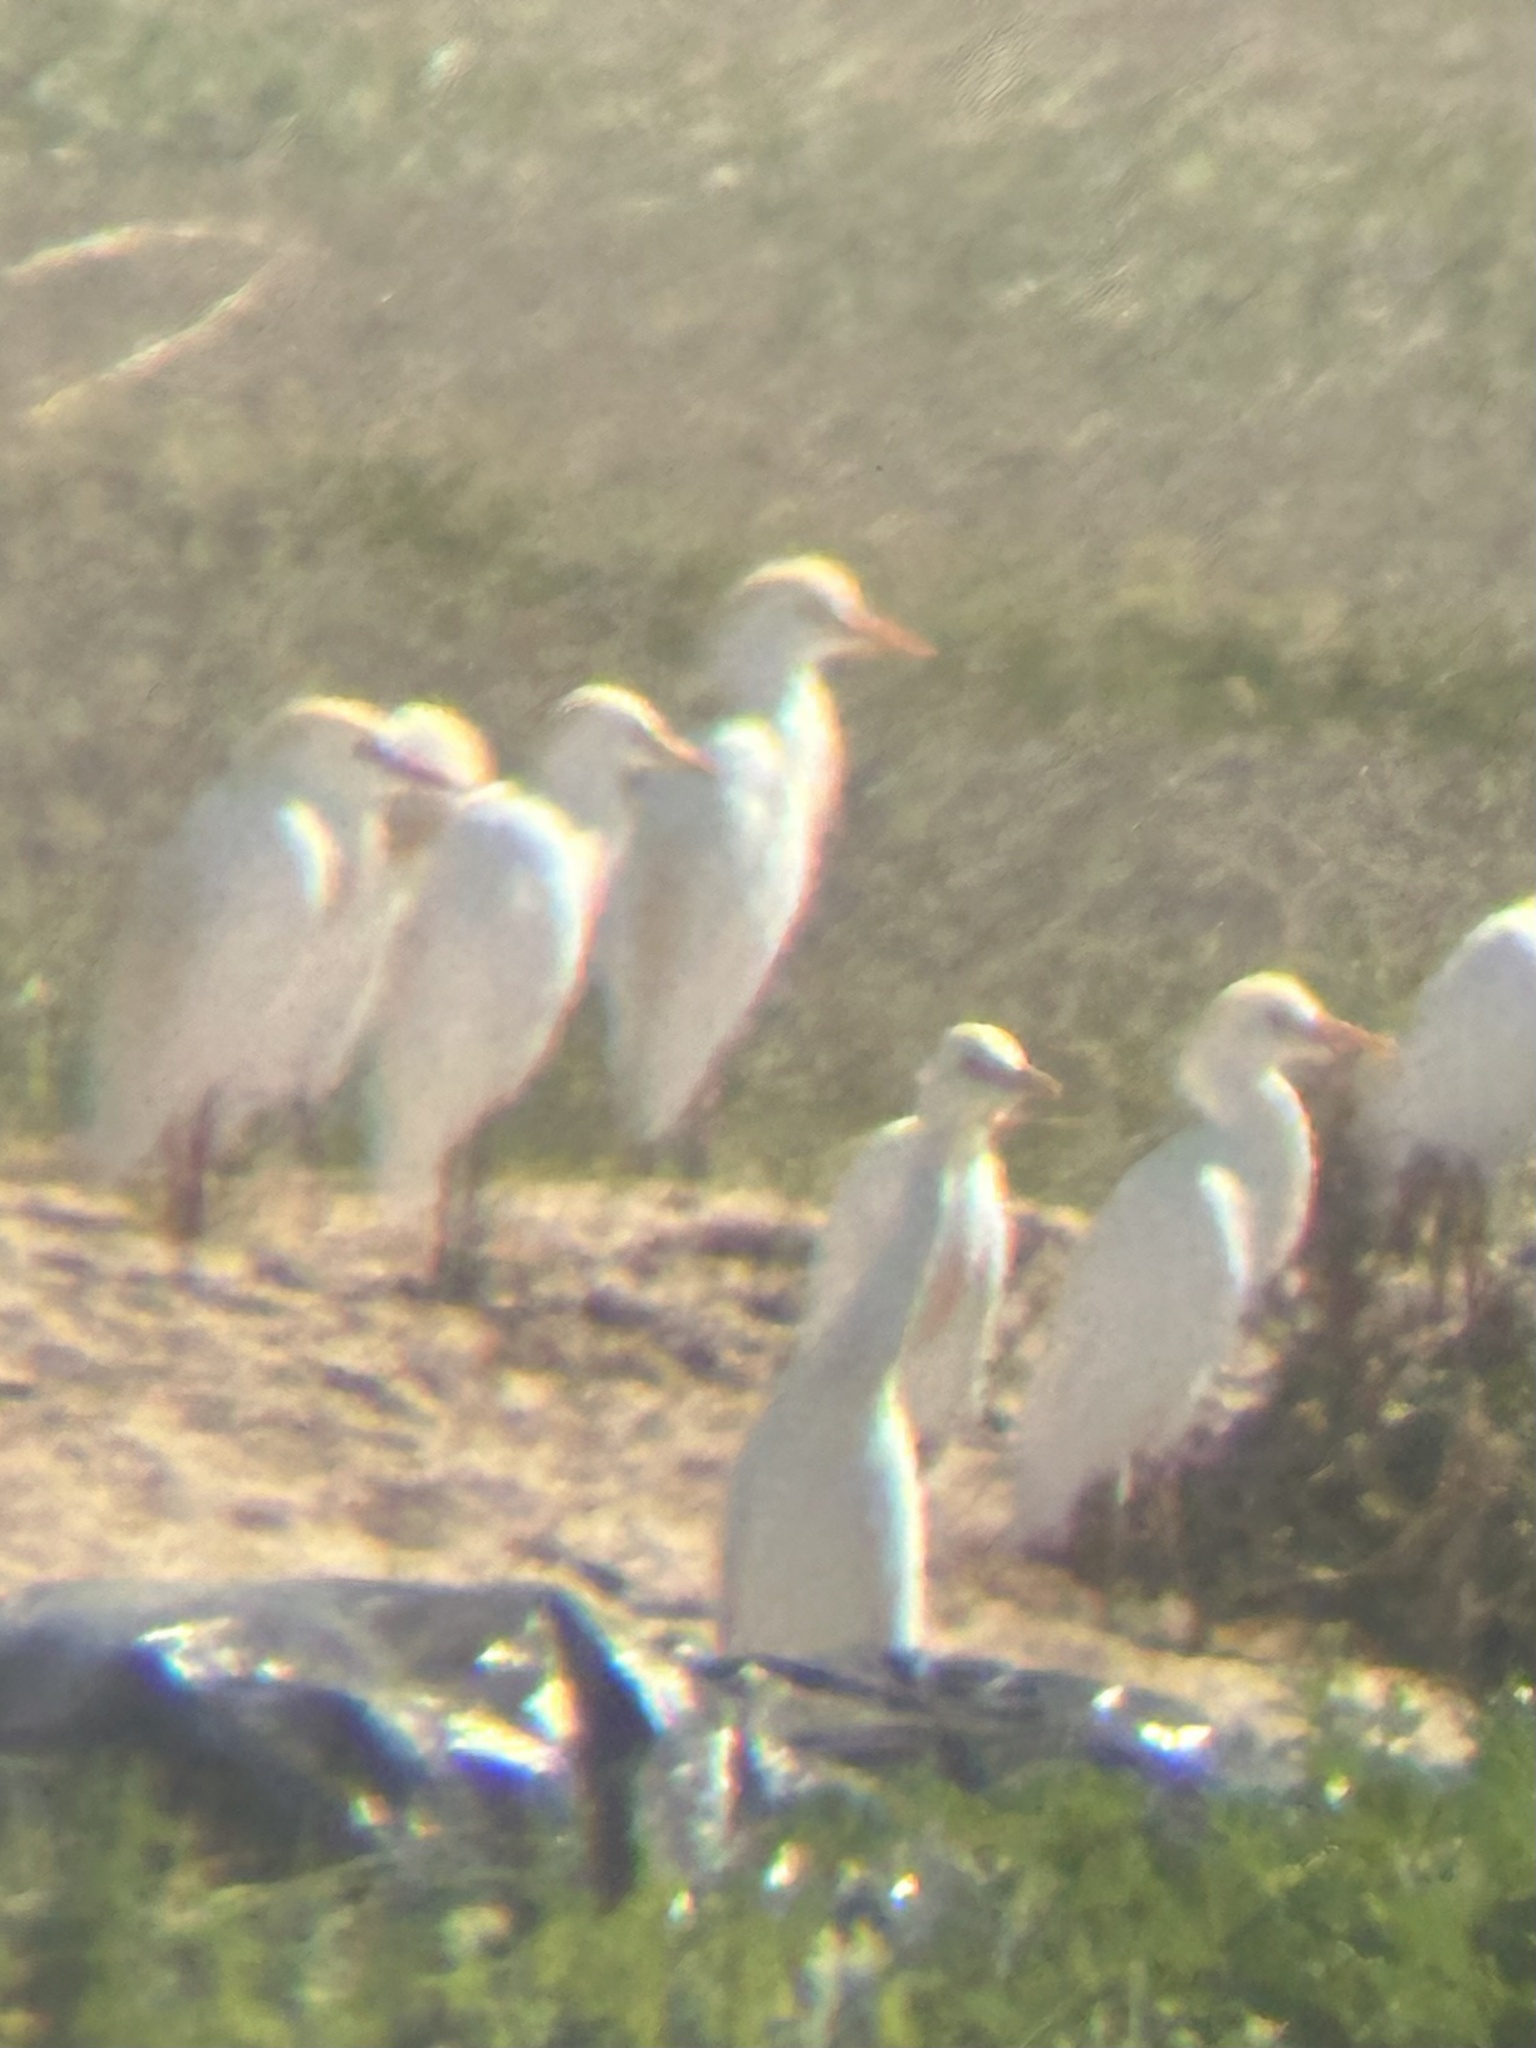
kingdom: Animalia
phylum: Chordata
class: Aves
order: Pelecaniformes
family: Ardeidae
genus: Bubulcus
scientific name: Bubulcus ibis
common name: Cattle egret
